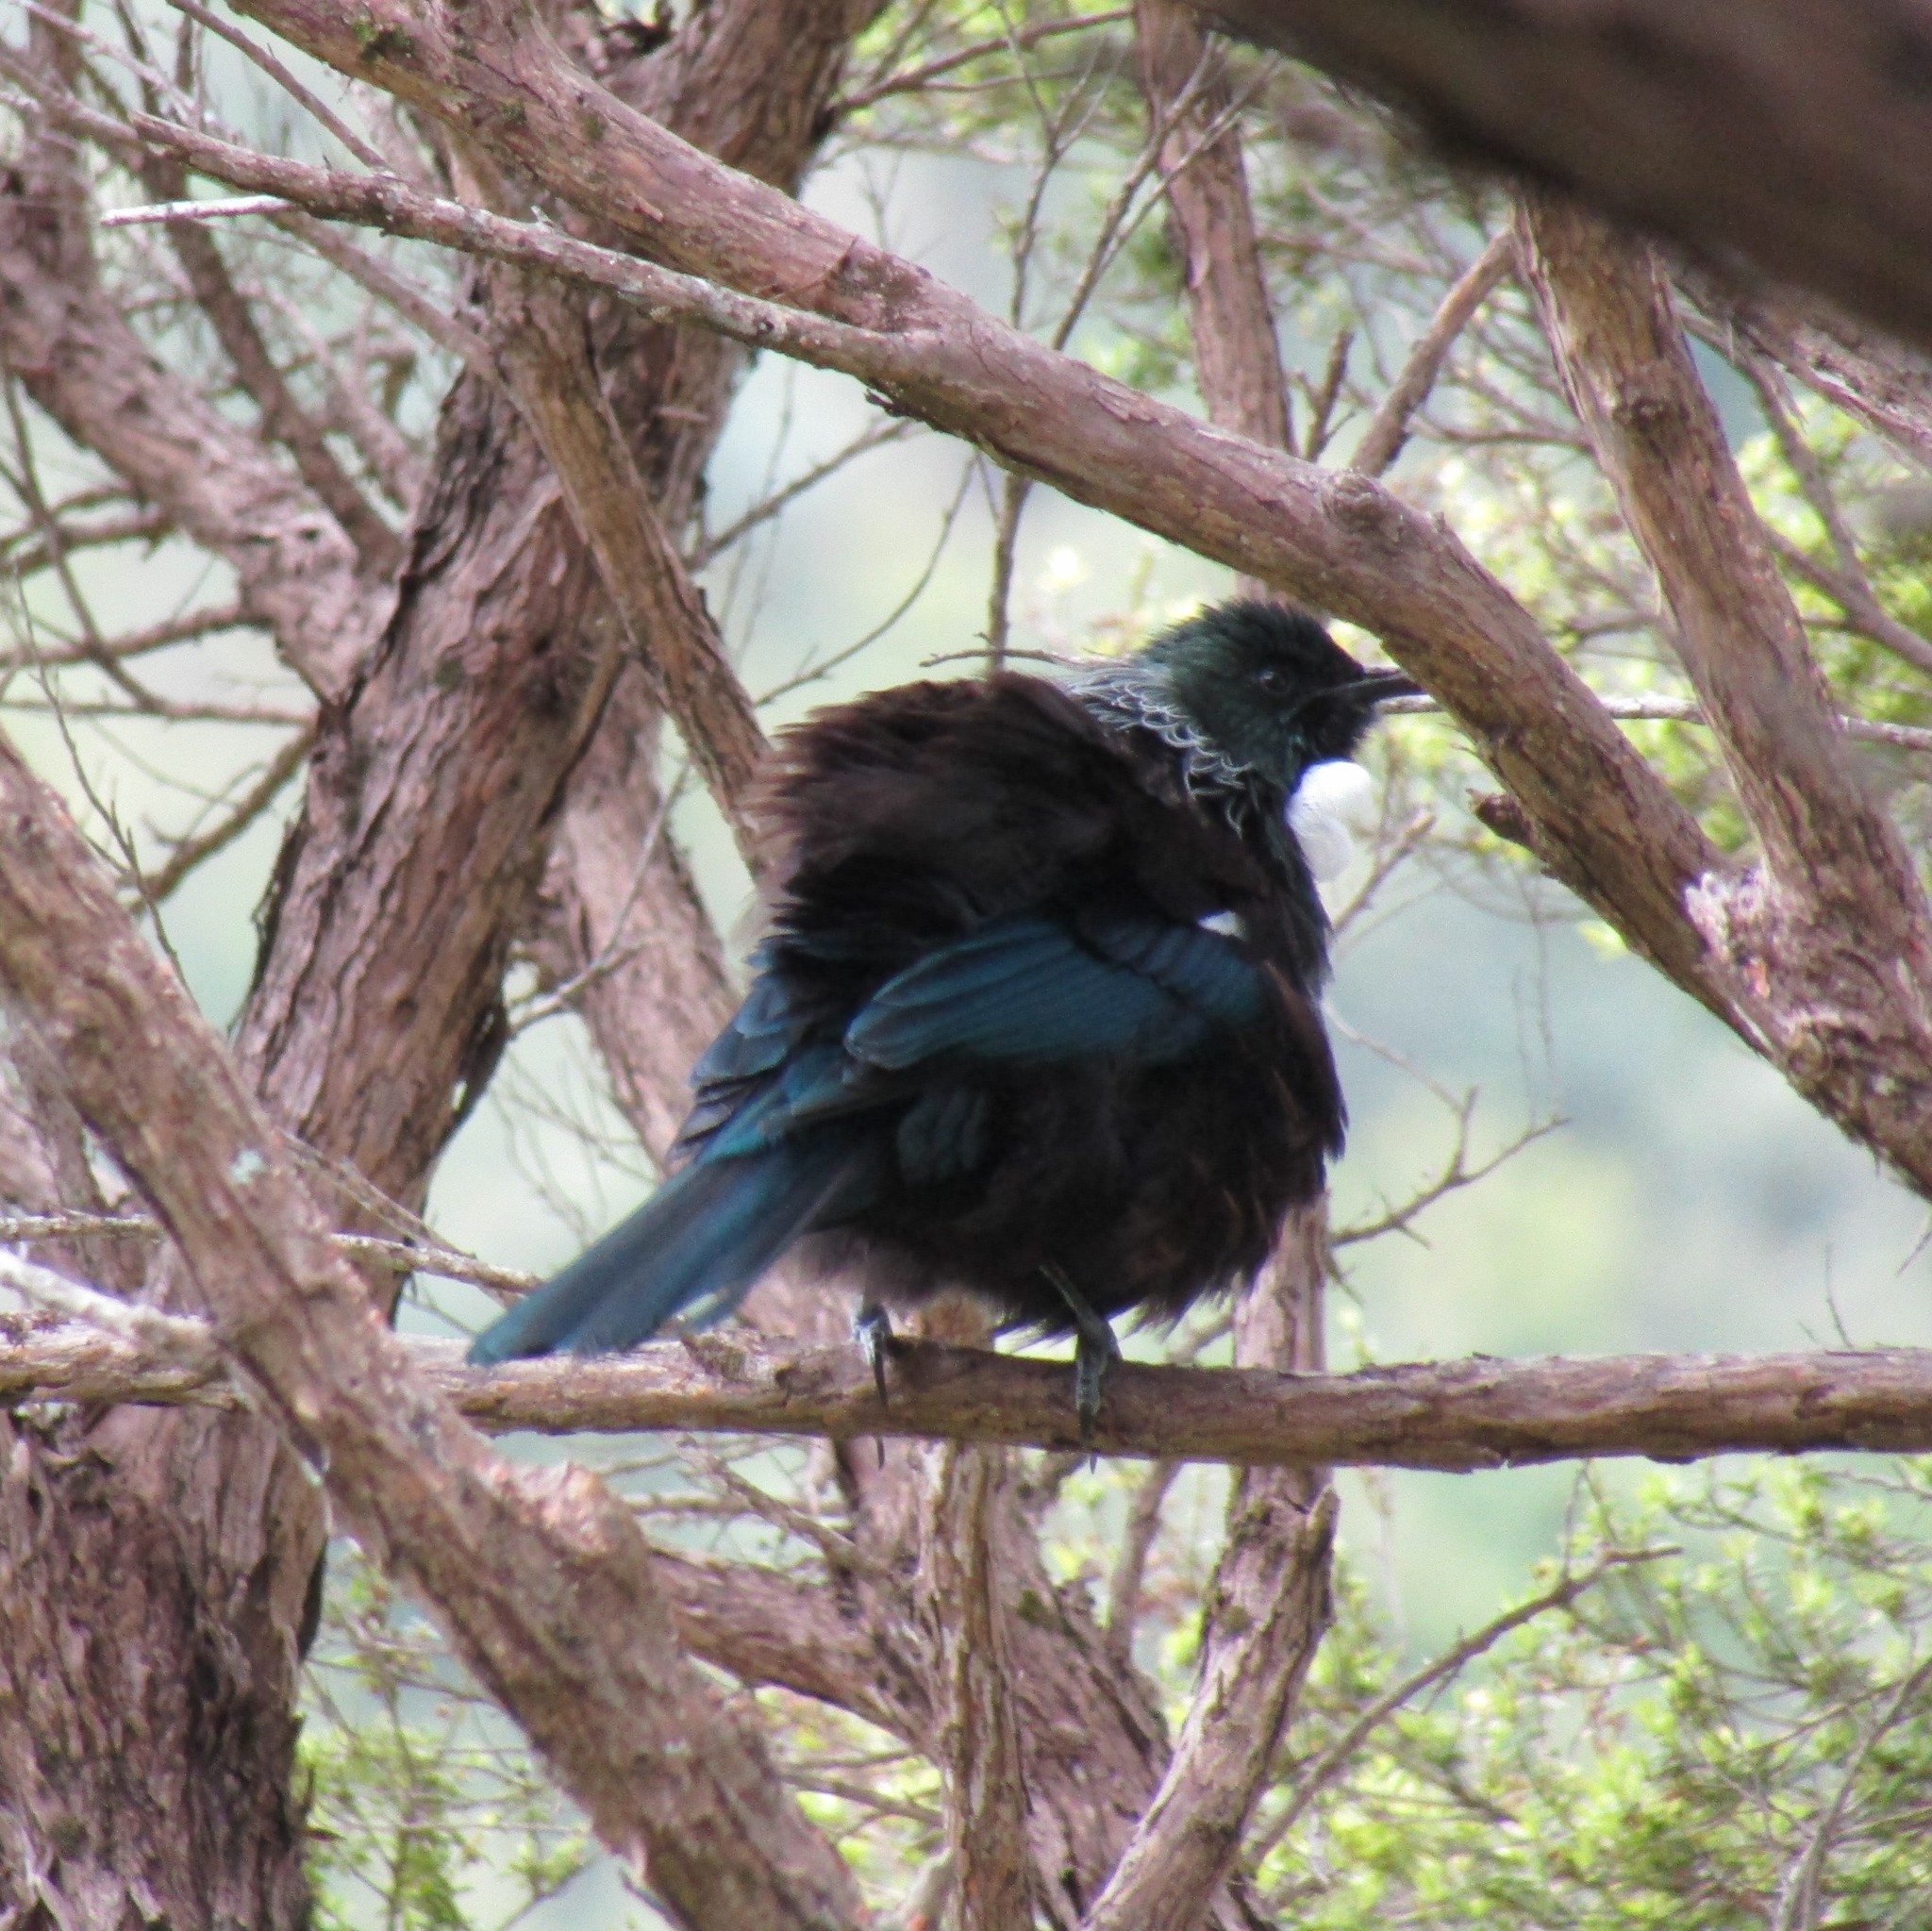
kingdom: Animalia
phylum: Chordata
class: Aves
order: Passeriformes
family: Meliphagidae
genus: Prosthemadera
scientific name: Prosthemadera novaeseelandiae
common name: Tui
